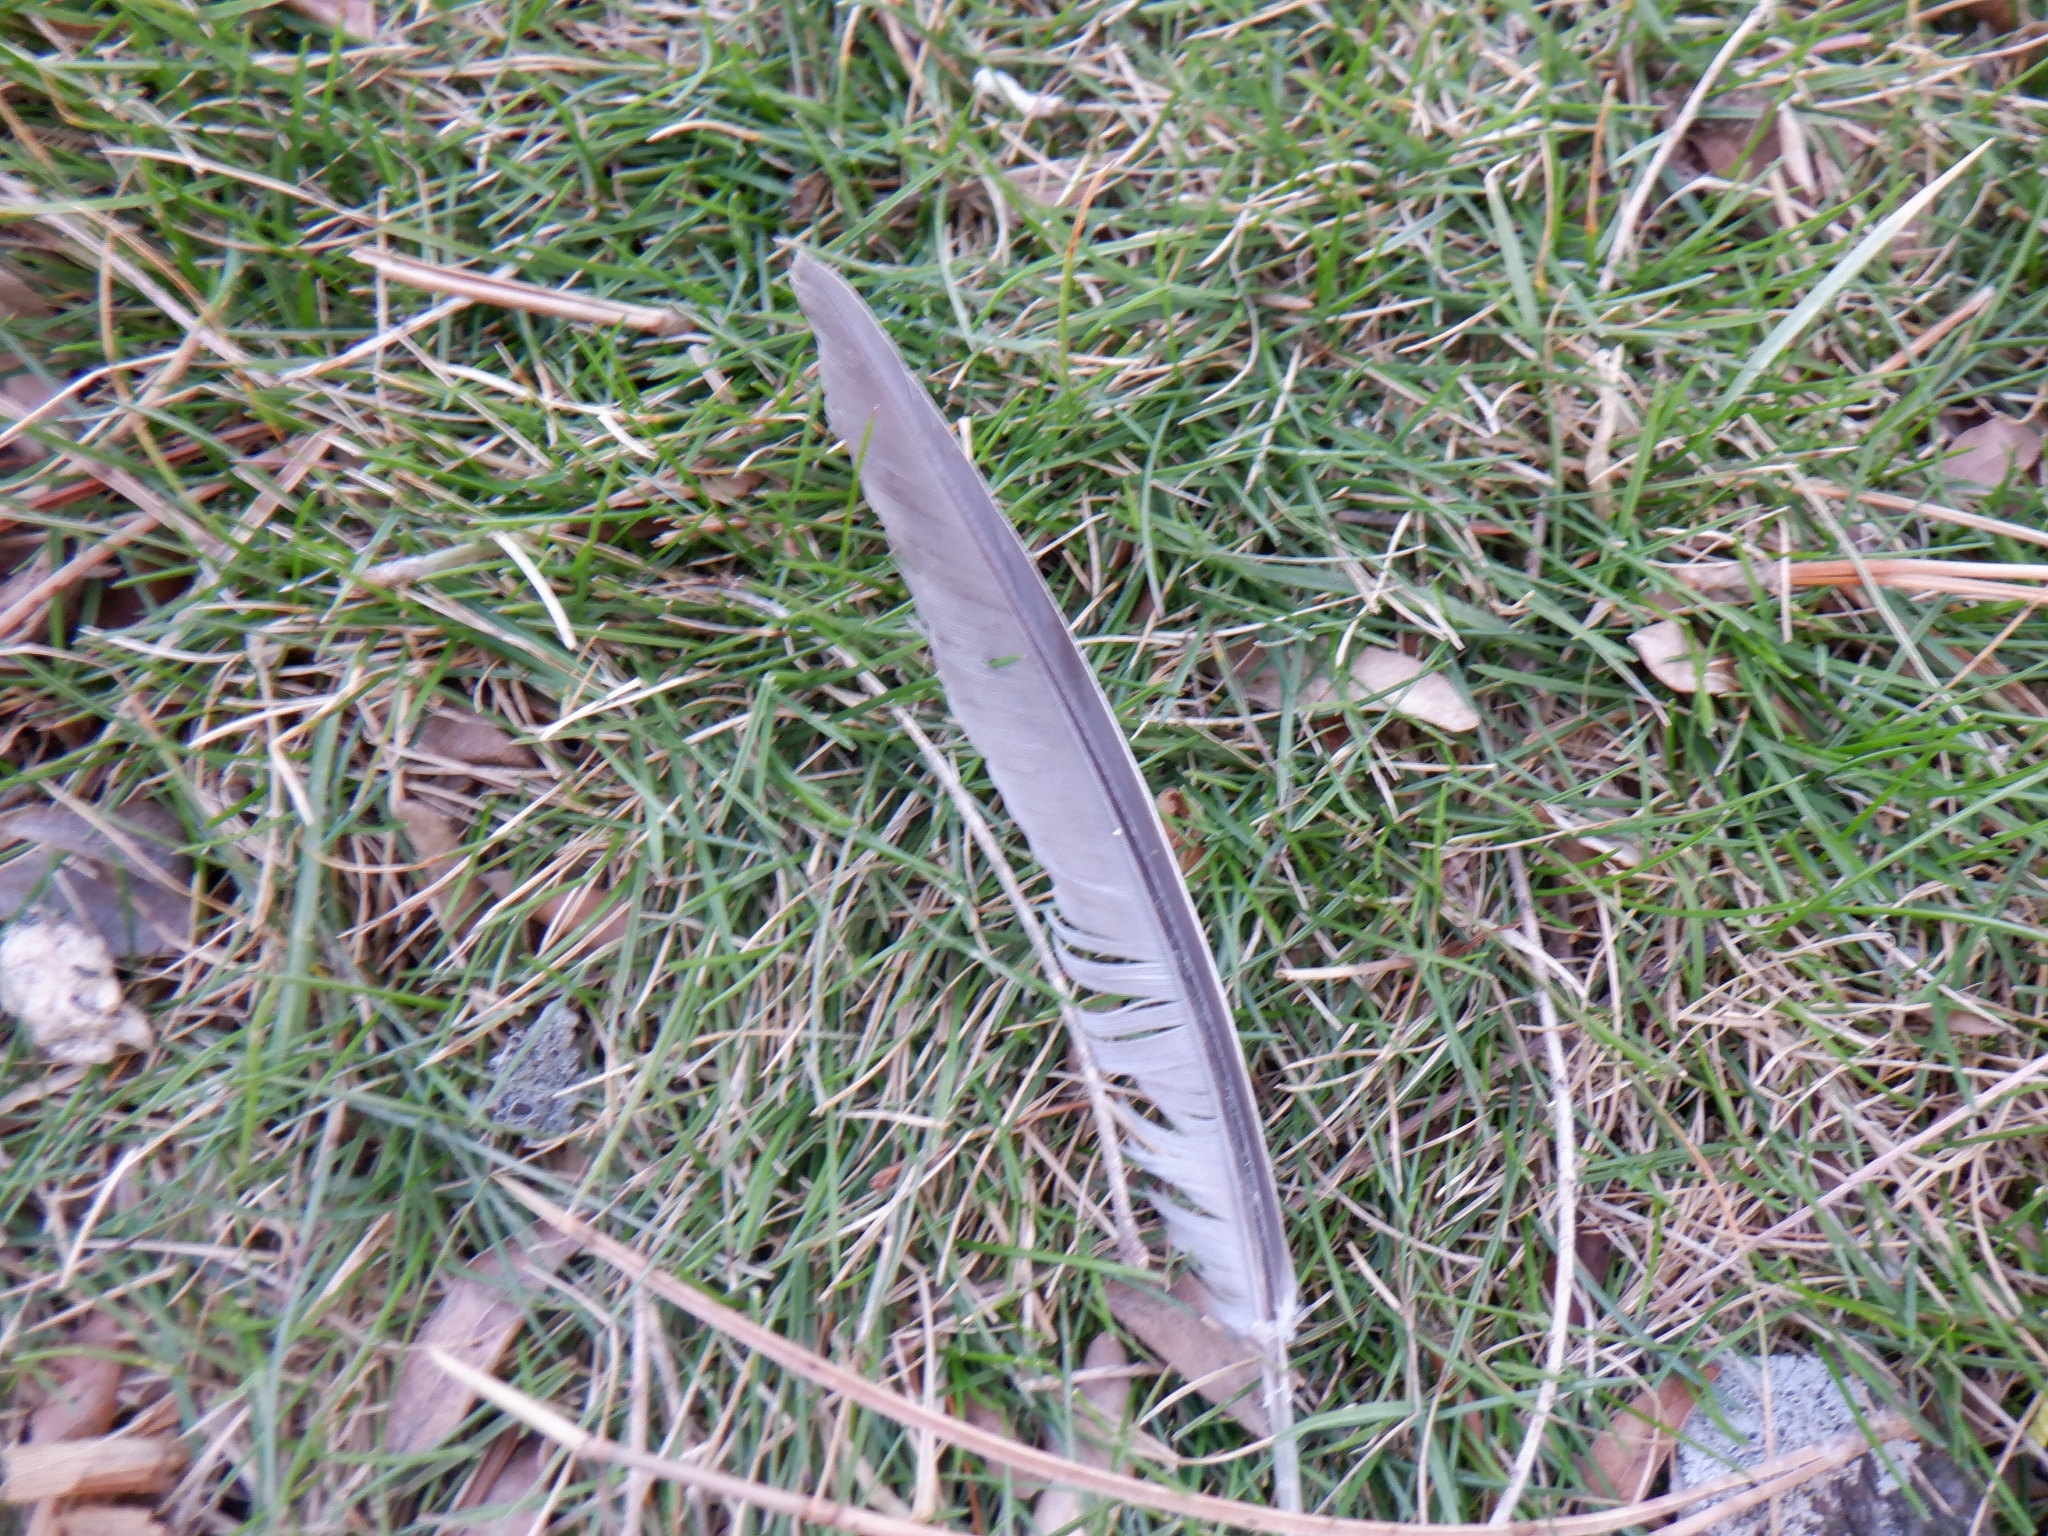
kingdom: Animalia
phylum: Chordata
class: Aves
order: Columbiformes
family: Columbidae
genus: Zenaida
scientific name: Zenaida macroura
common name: Mourning dove
